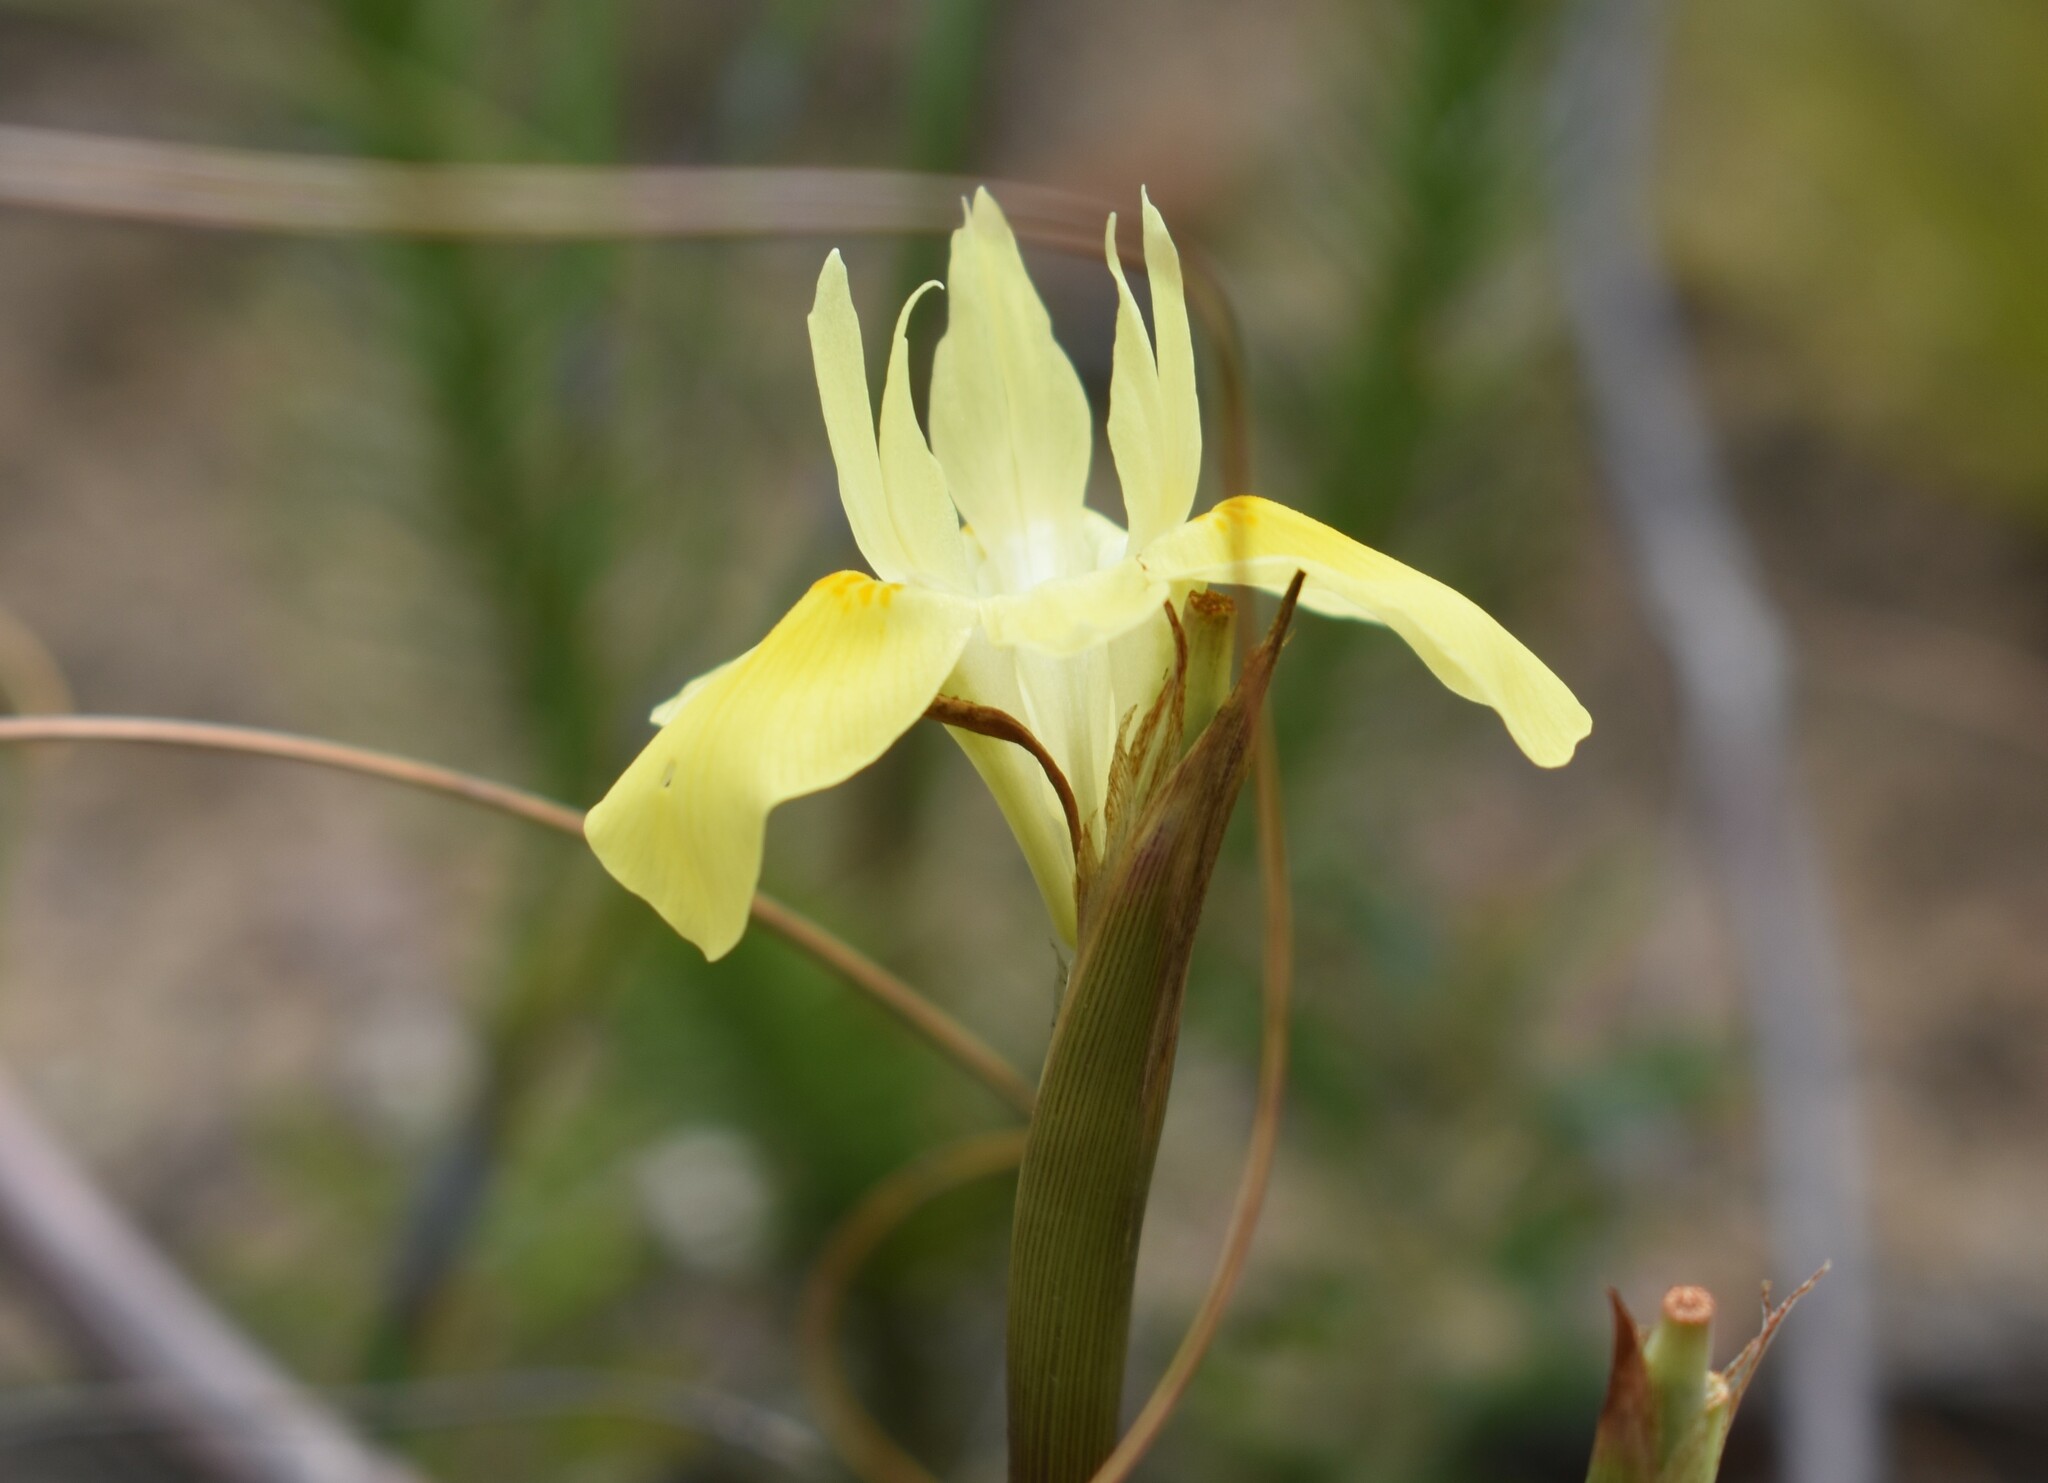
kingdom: Plantae
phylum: Tracheophyta
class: Liliopsida
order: Asparagales
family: Iridaceae
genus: Moraea
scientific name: Moraea fugax
